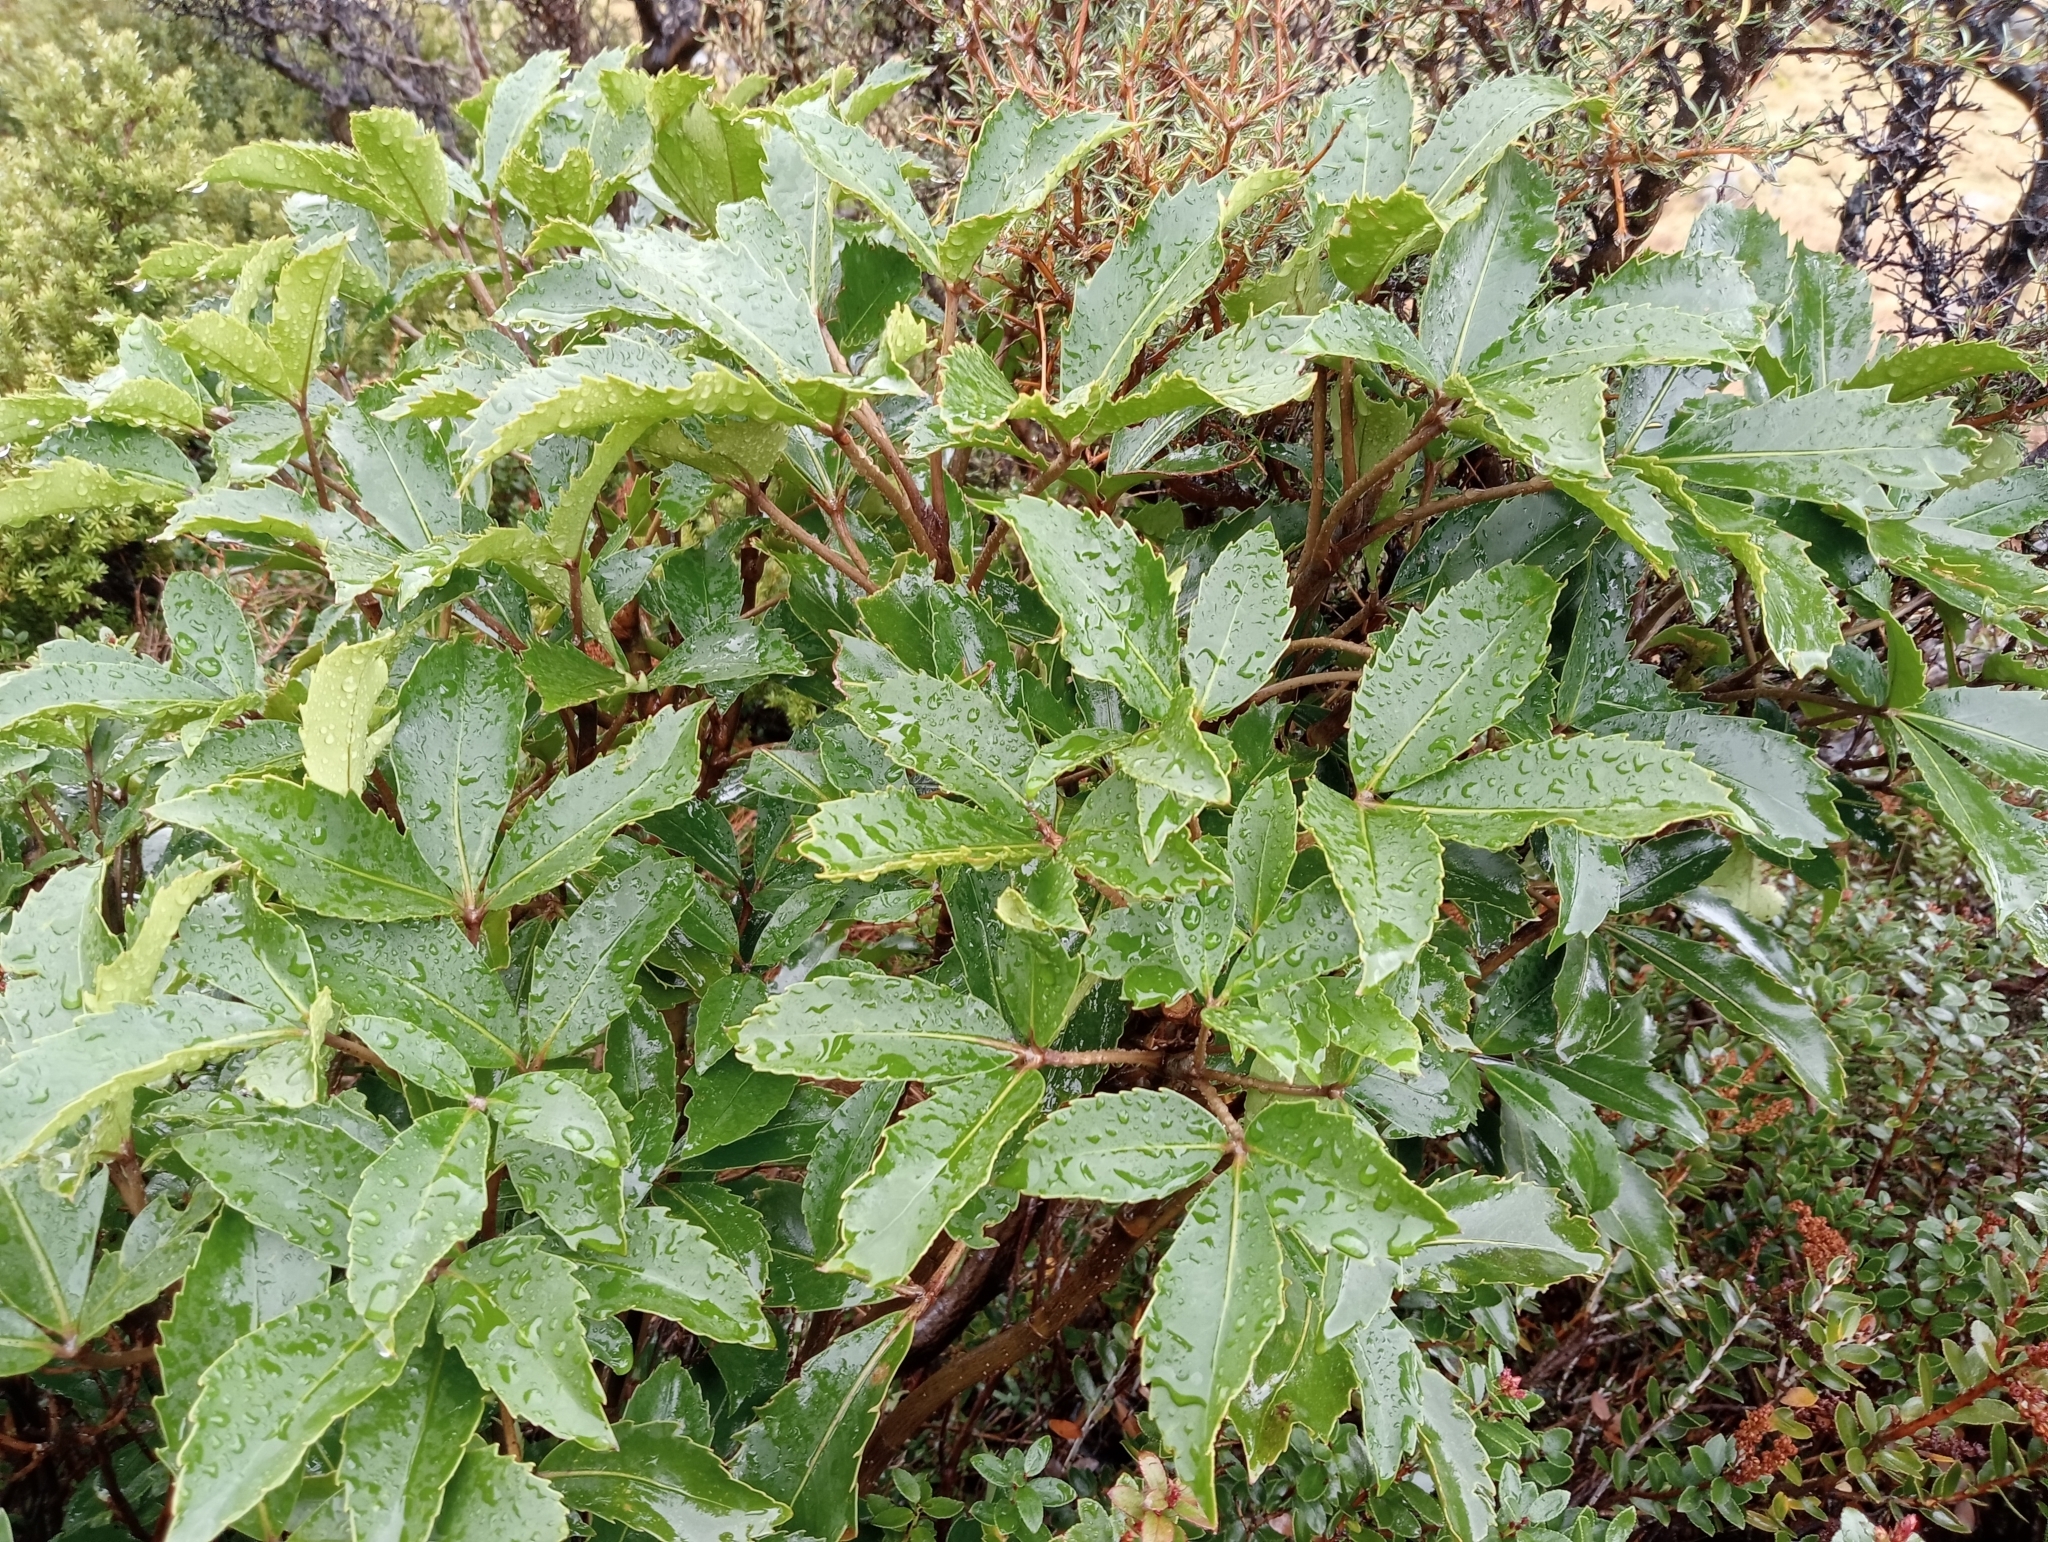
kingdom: Plantae
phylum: Tracheophyta
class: Magnoliopsida
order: Apiales
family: Araliaceae
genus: Neopanax
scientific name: Neopanax colensoi
